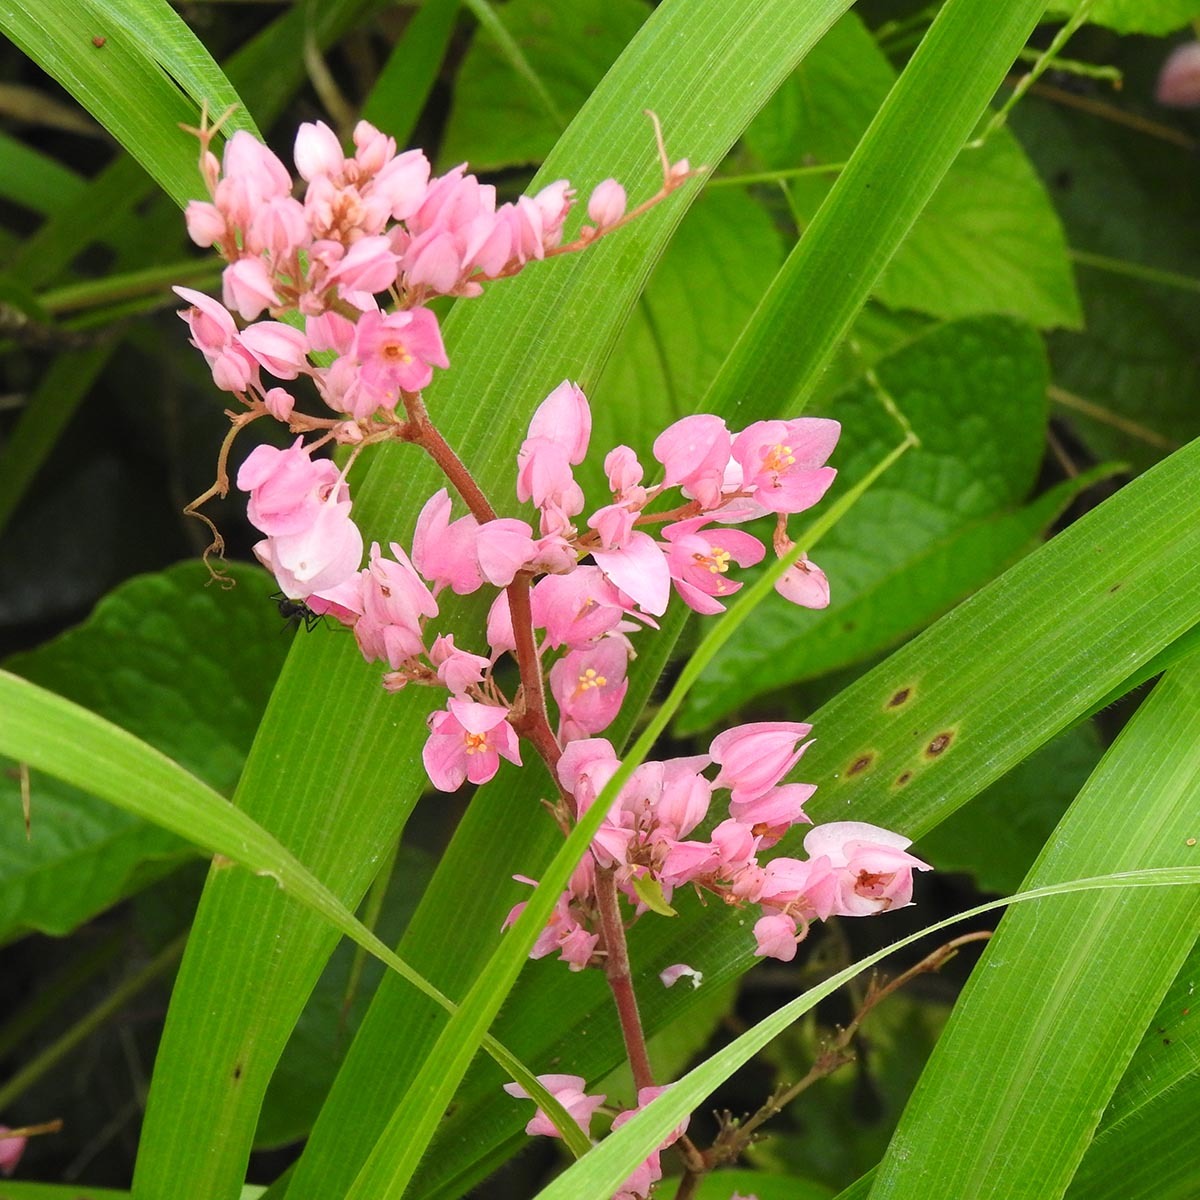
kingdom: Plantae
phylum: Tracheophyta
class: Magnoliopsida
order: Caryophyllales
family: Polygonaceae
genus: Antigonon
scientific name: Antigonon leptopus
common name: Coral vine
